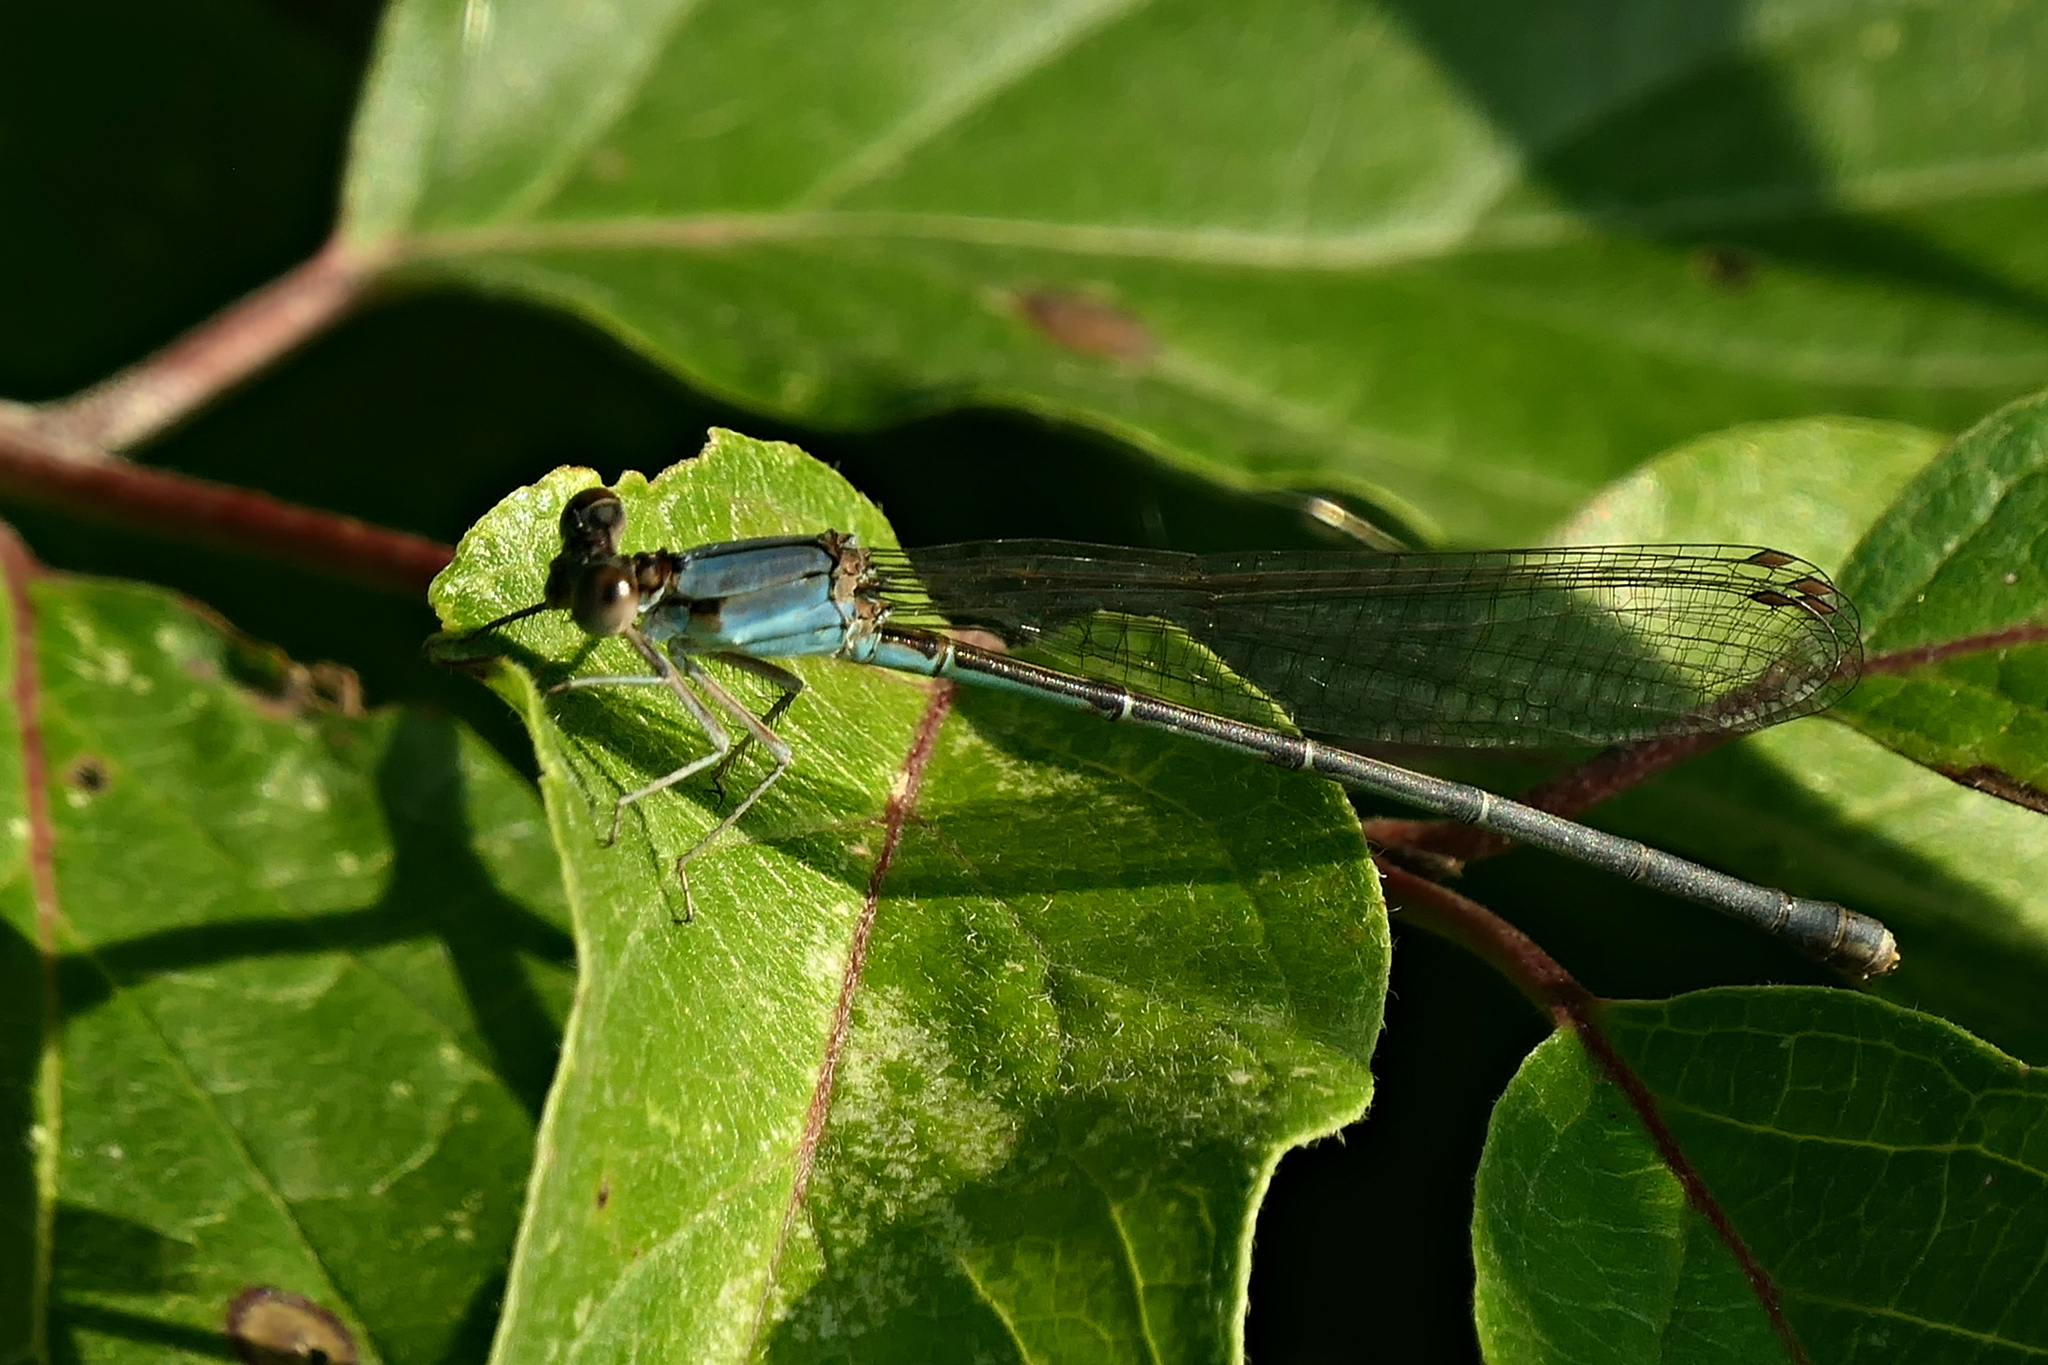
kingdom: Animalia
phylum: Arthropoda
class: Insecta
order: Odonata
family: Coenagrionidae
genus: Argia
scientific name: Argia apicalis
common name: Blue-fronted dancer
